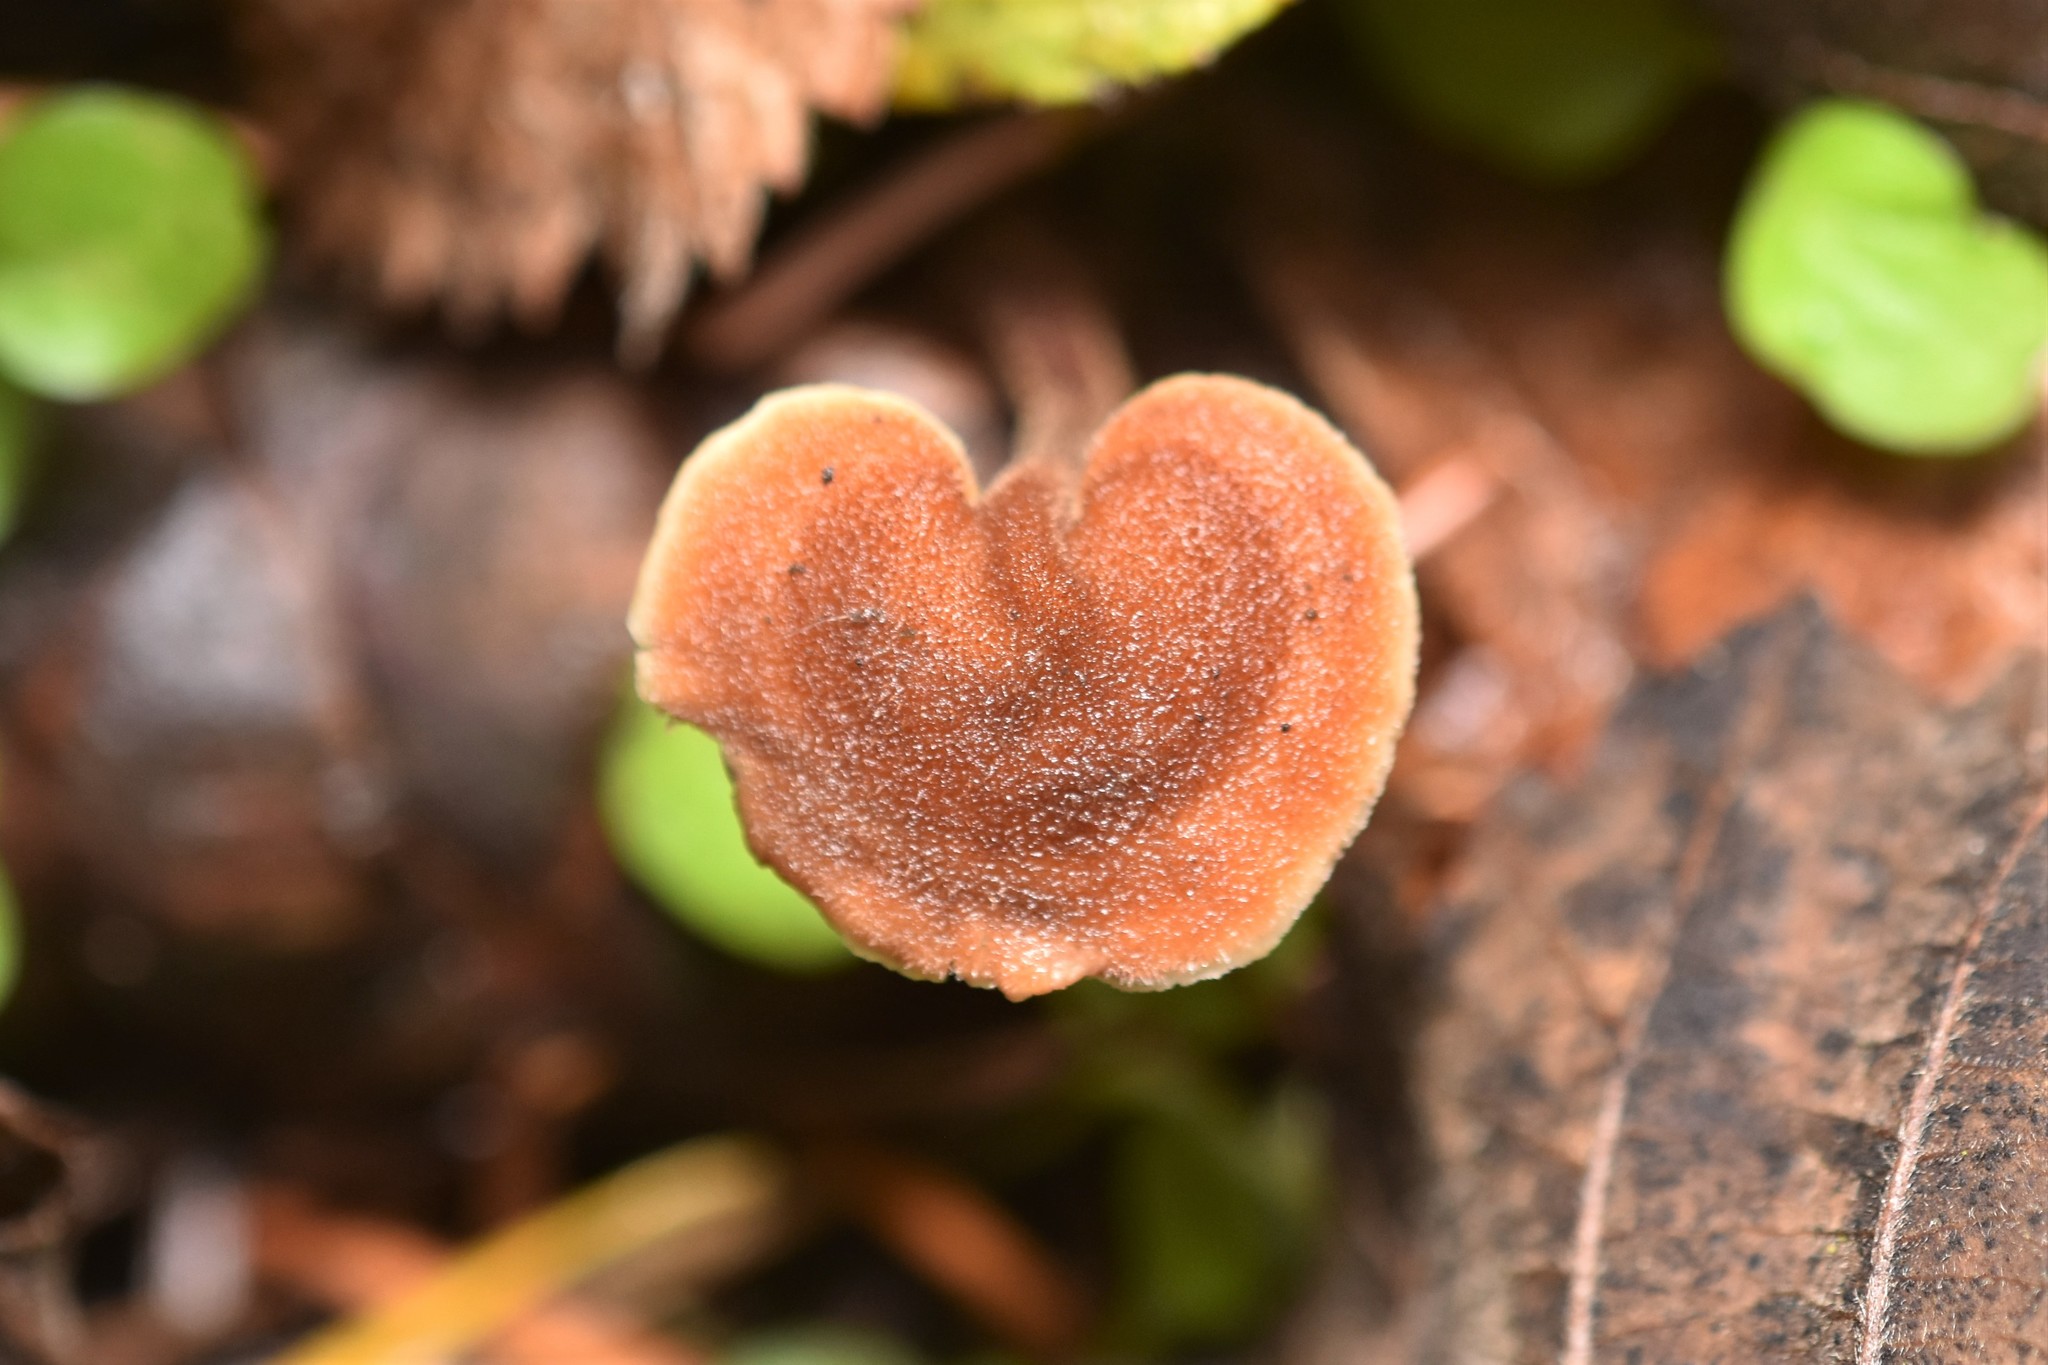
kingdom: Fungi
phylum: Basidiomycota
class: Agaricomycetes
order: Russulales
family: Auriscalpiaceae
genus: Auriscalpium
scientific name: Auriscalpium vulgare
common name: Earpick fungus
